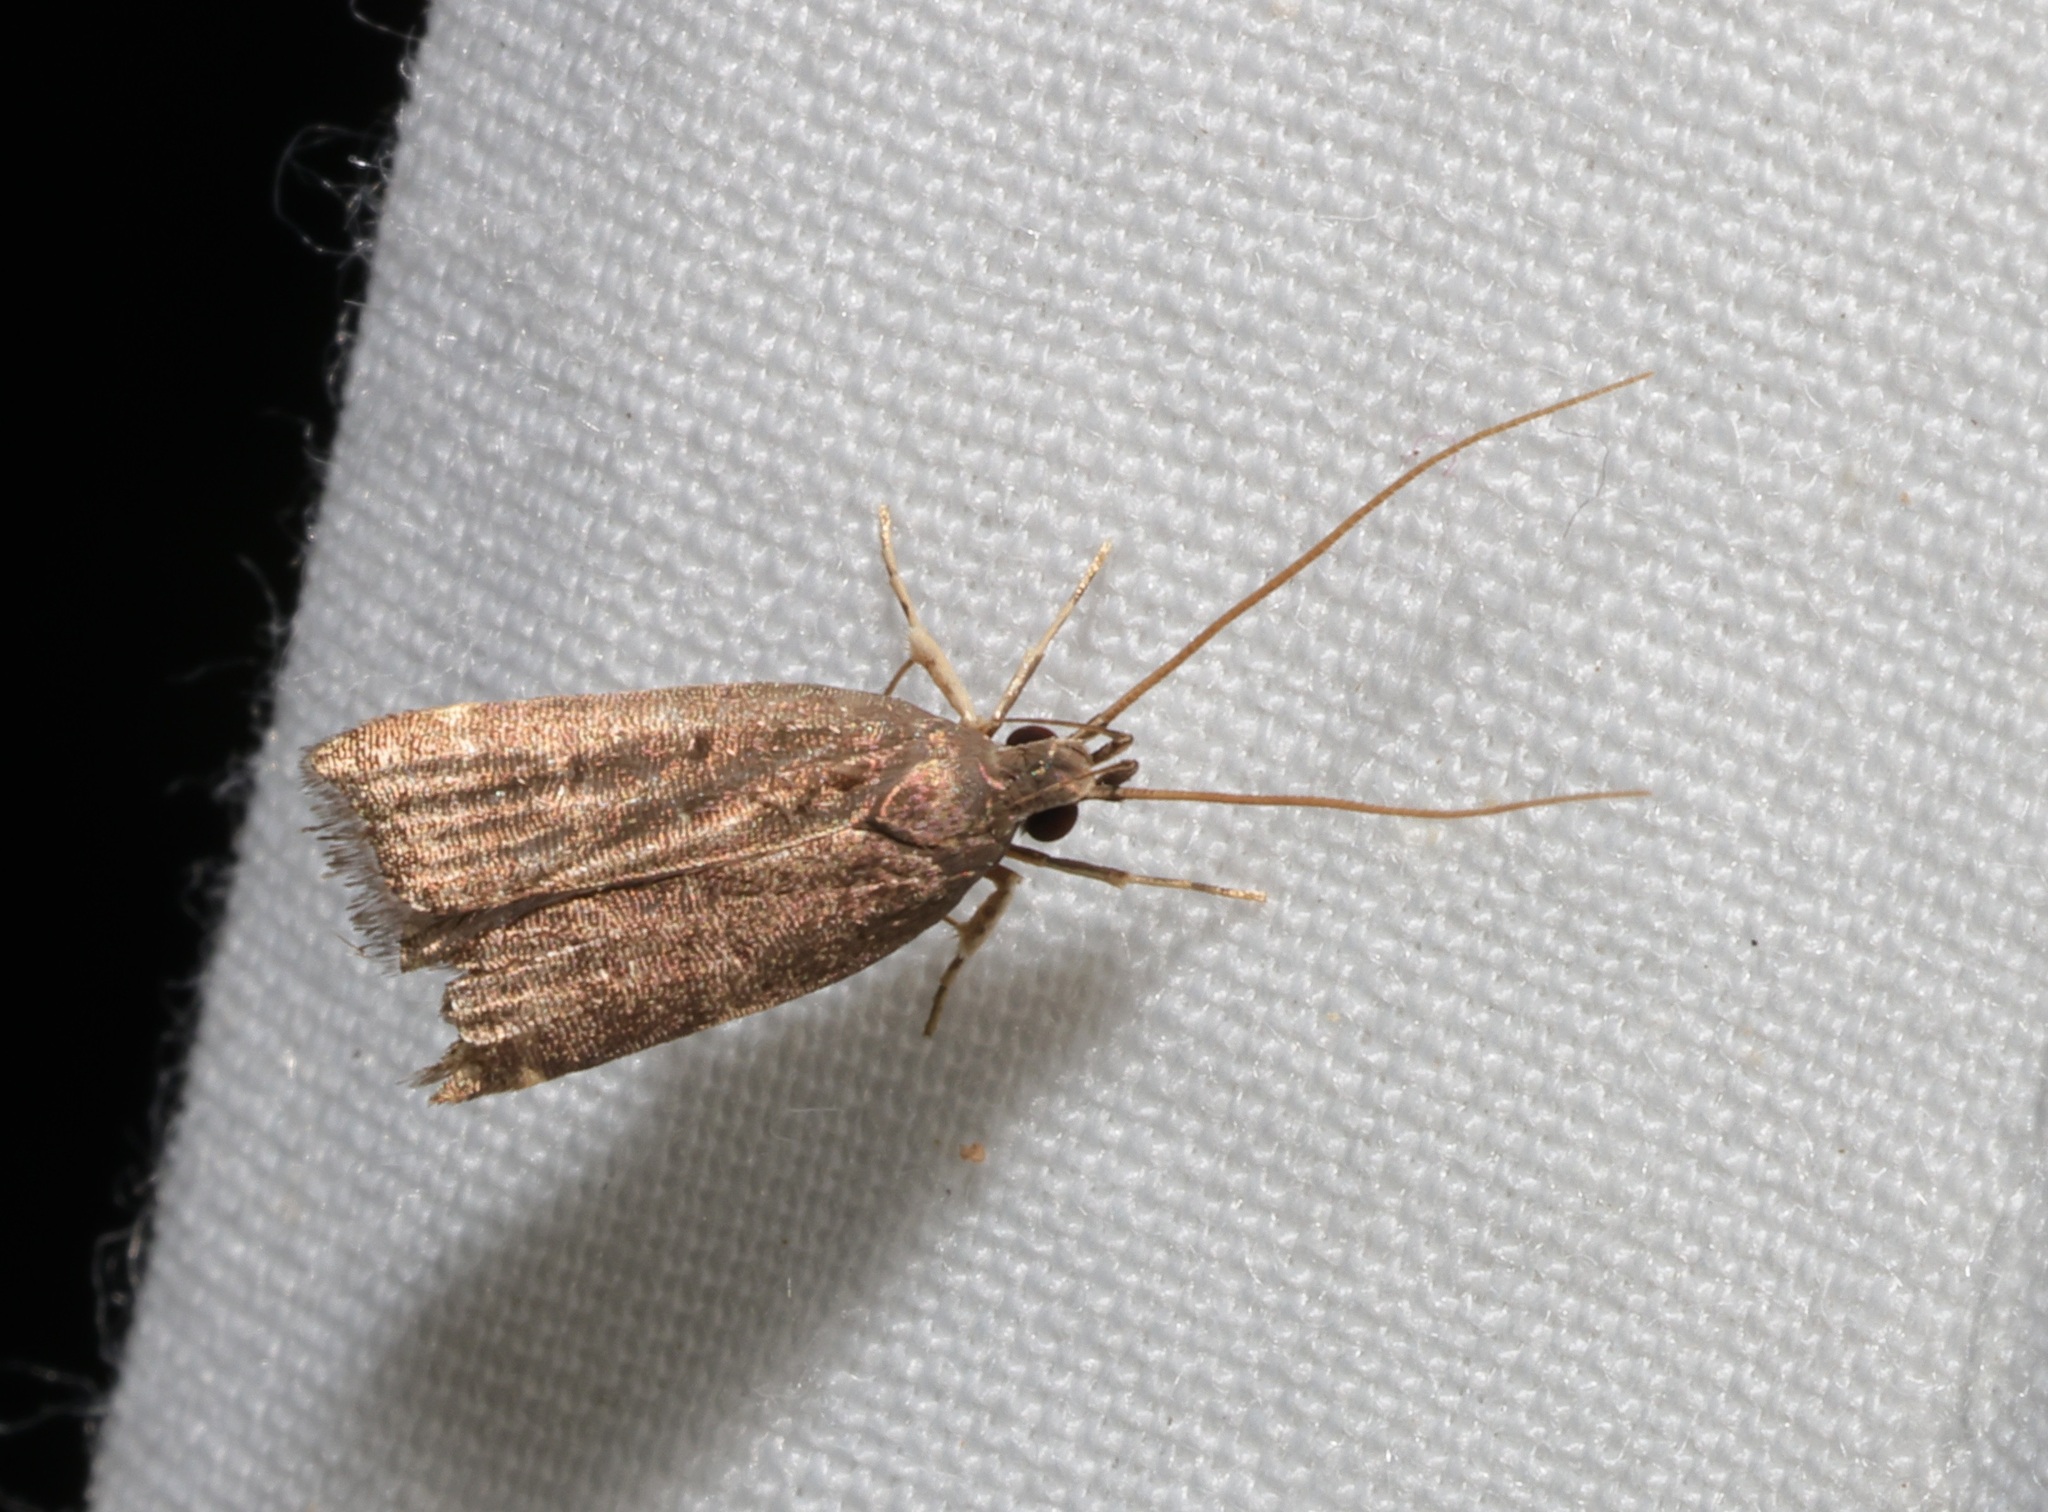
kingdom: Animalia
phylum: Arthropoda
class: Insecta
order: Lepidoptera
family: Lecithoceridae
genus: Torodora
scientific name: Torodora gemella
